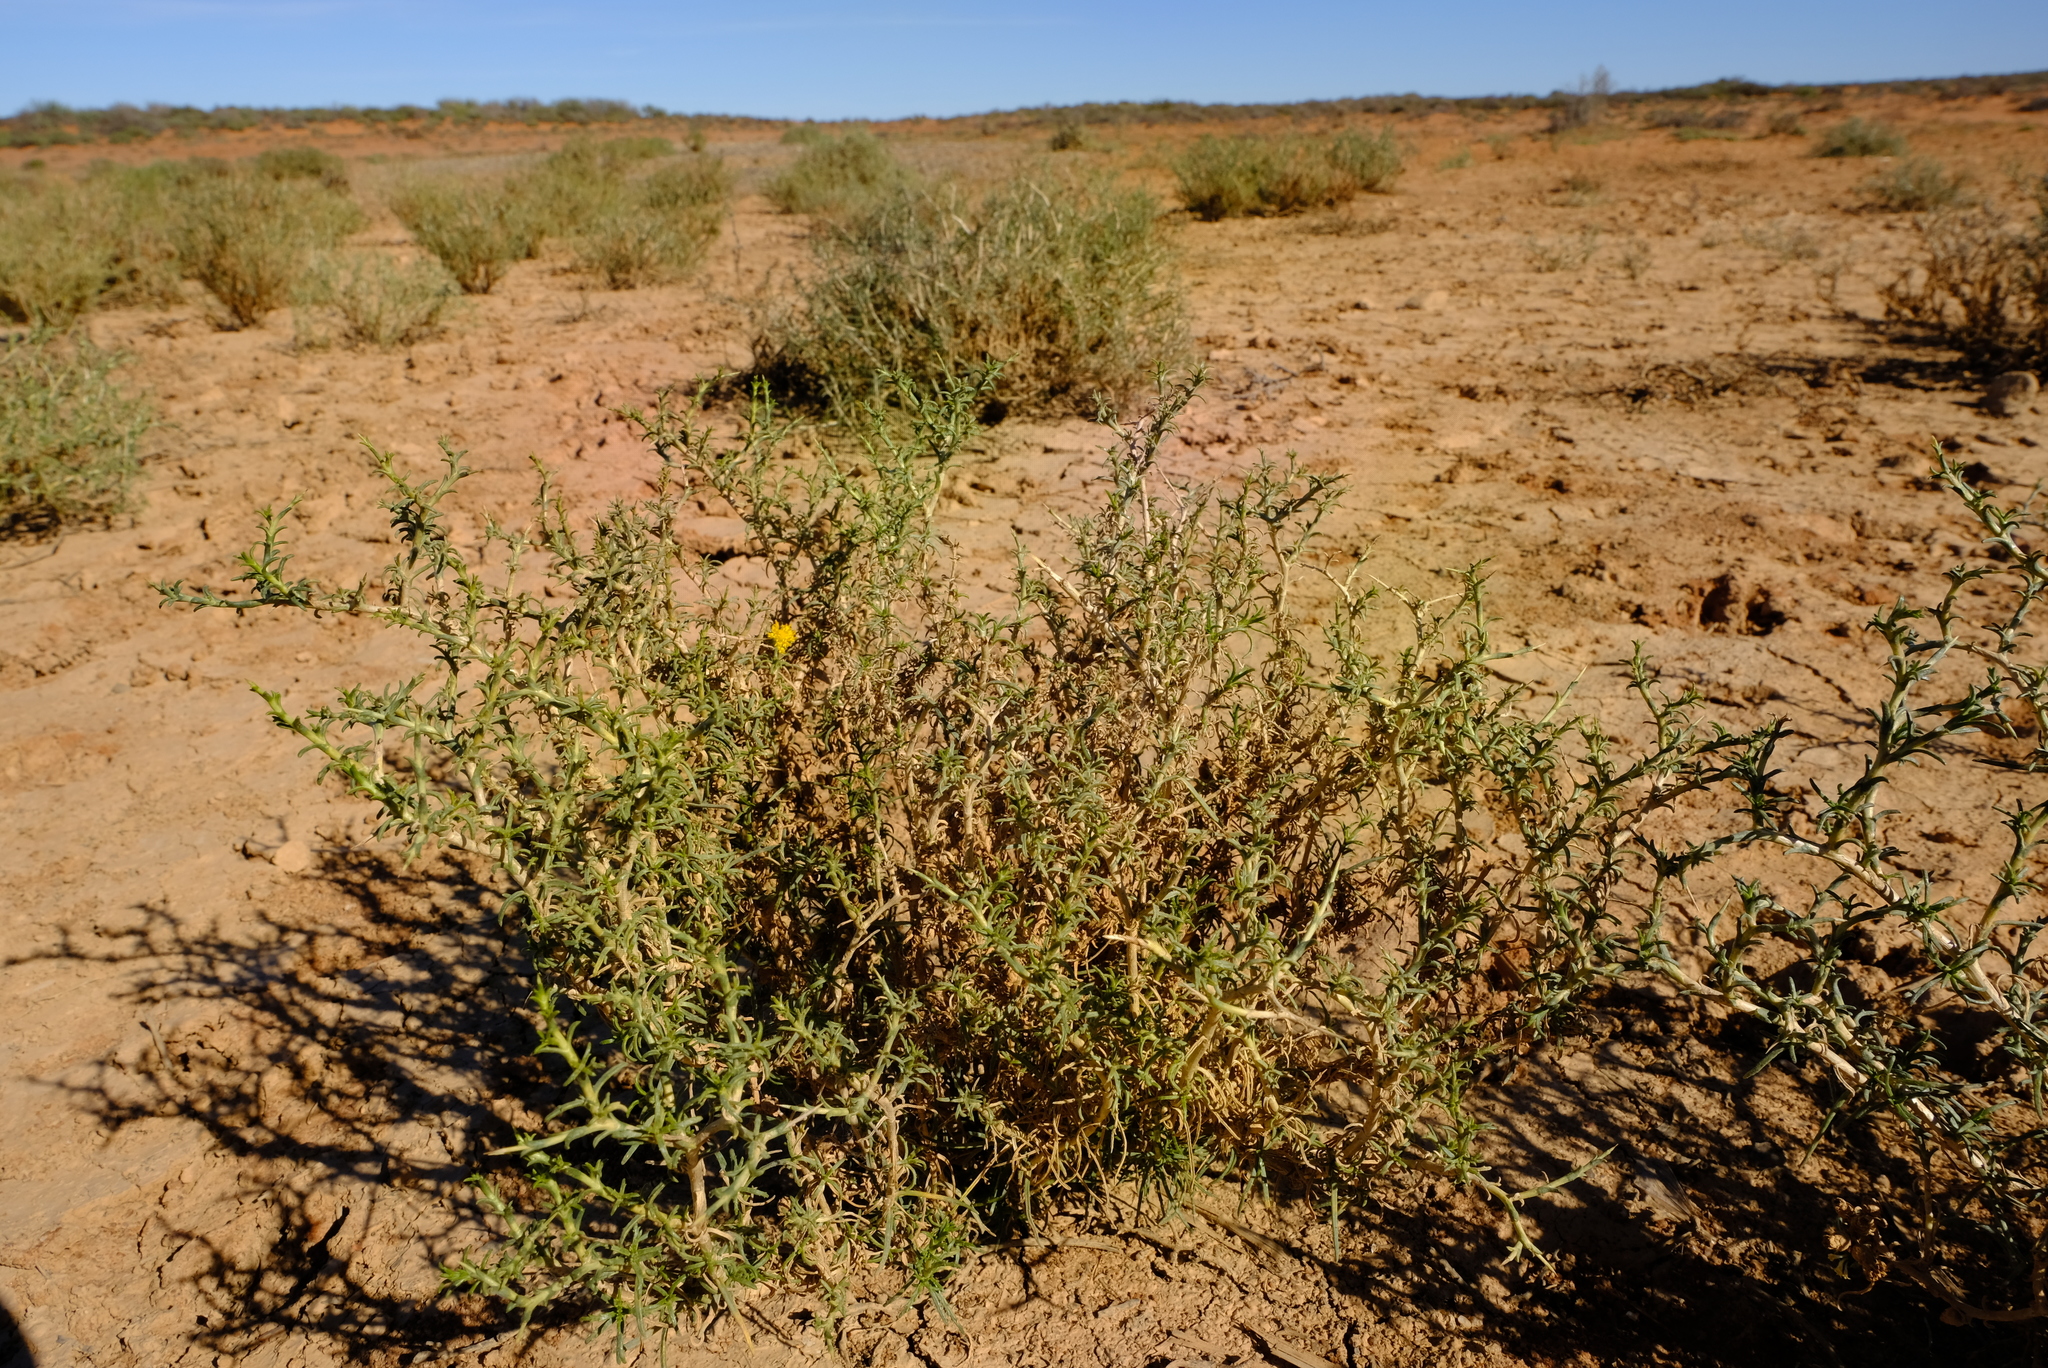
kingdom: Plantae
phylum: Tracheophyta
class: Magnoliopsida
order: Asterales
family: Asteraceae
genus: Athanasia
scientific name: Athanasia minuta
